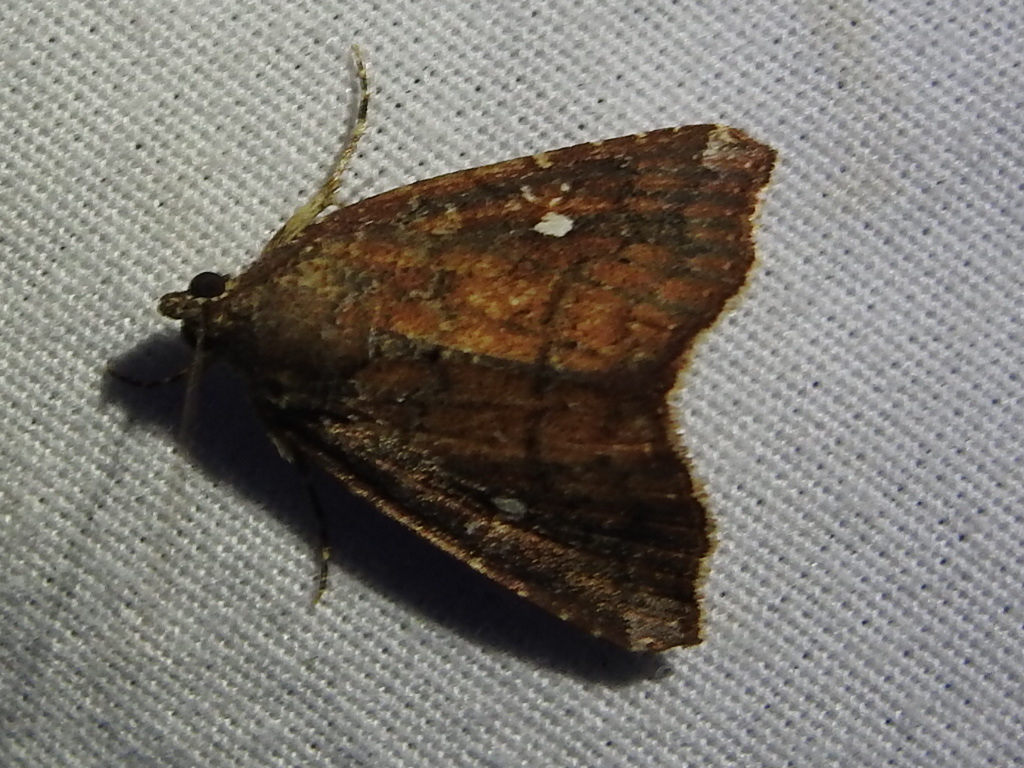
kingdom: Animalia
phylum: Arthropoda
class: Insecta
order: Lepidoptera
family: Noctuidae
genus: Amyna
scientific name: Amyna bullula
